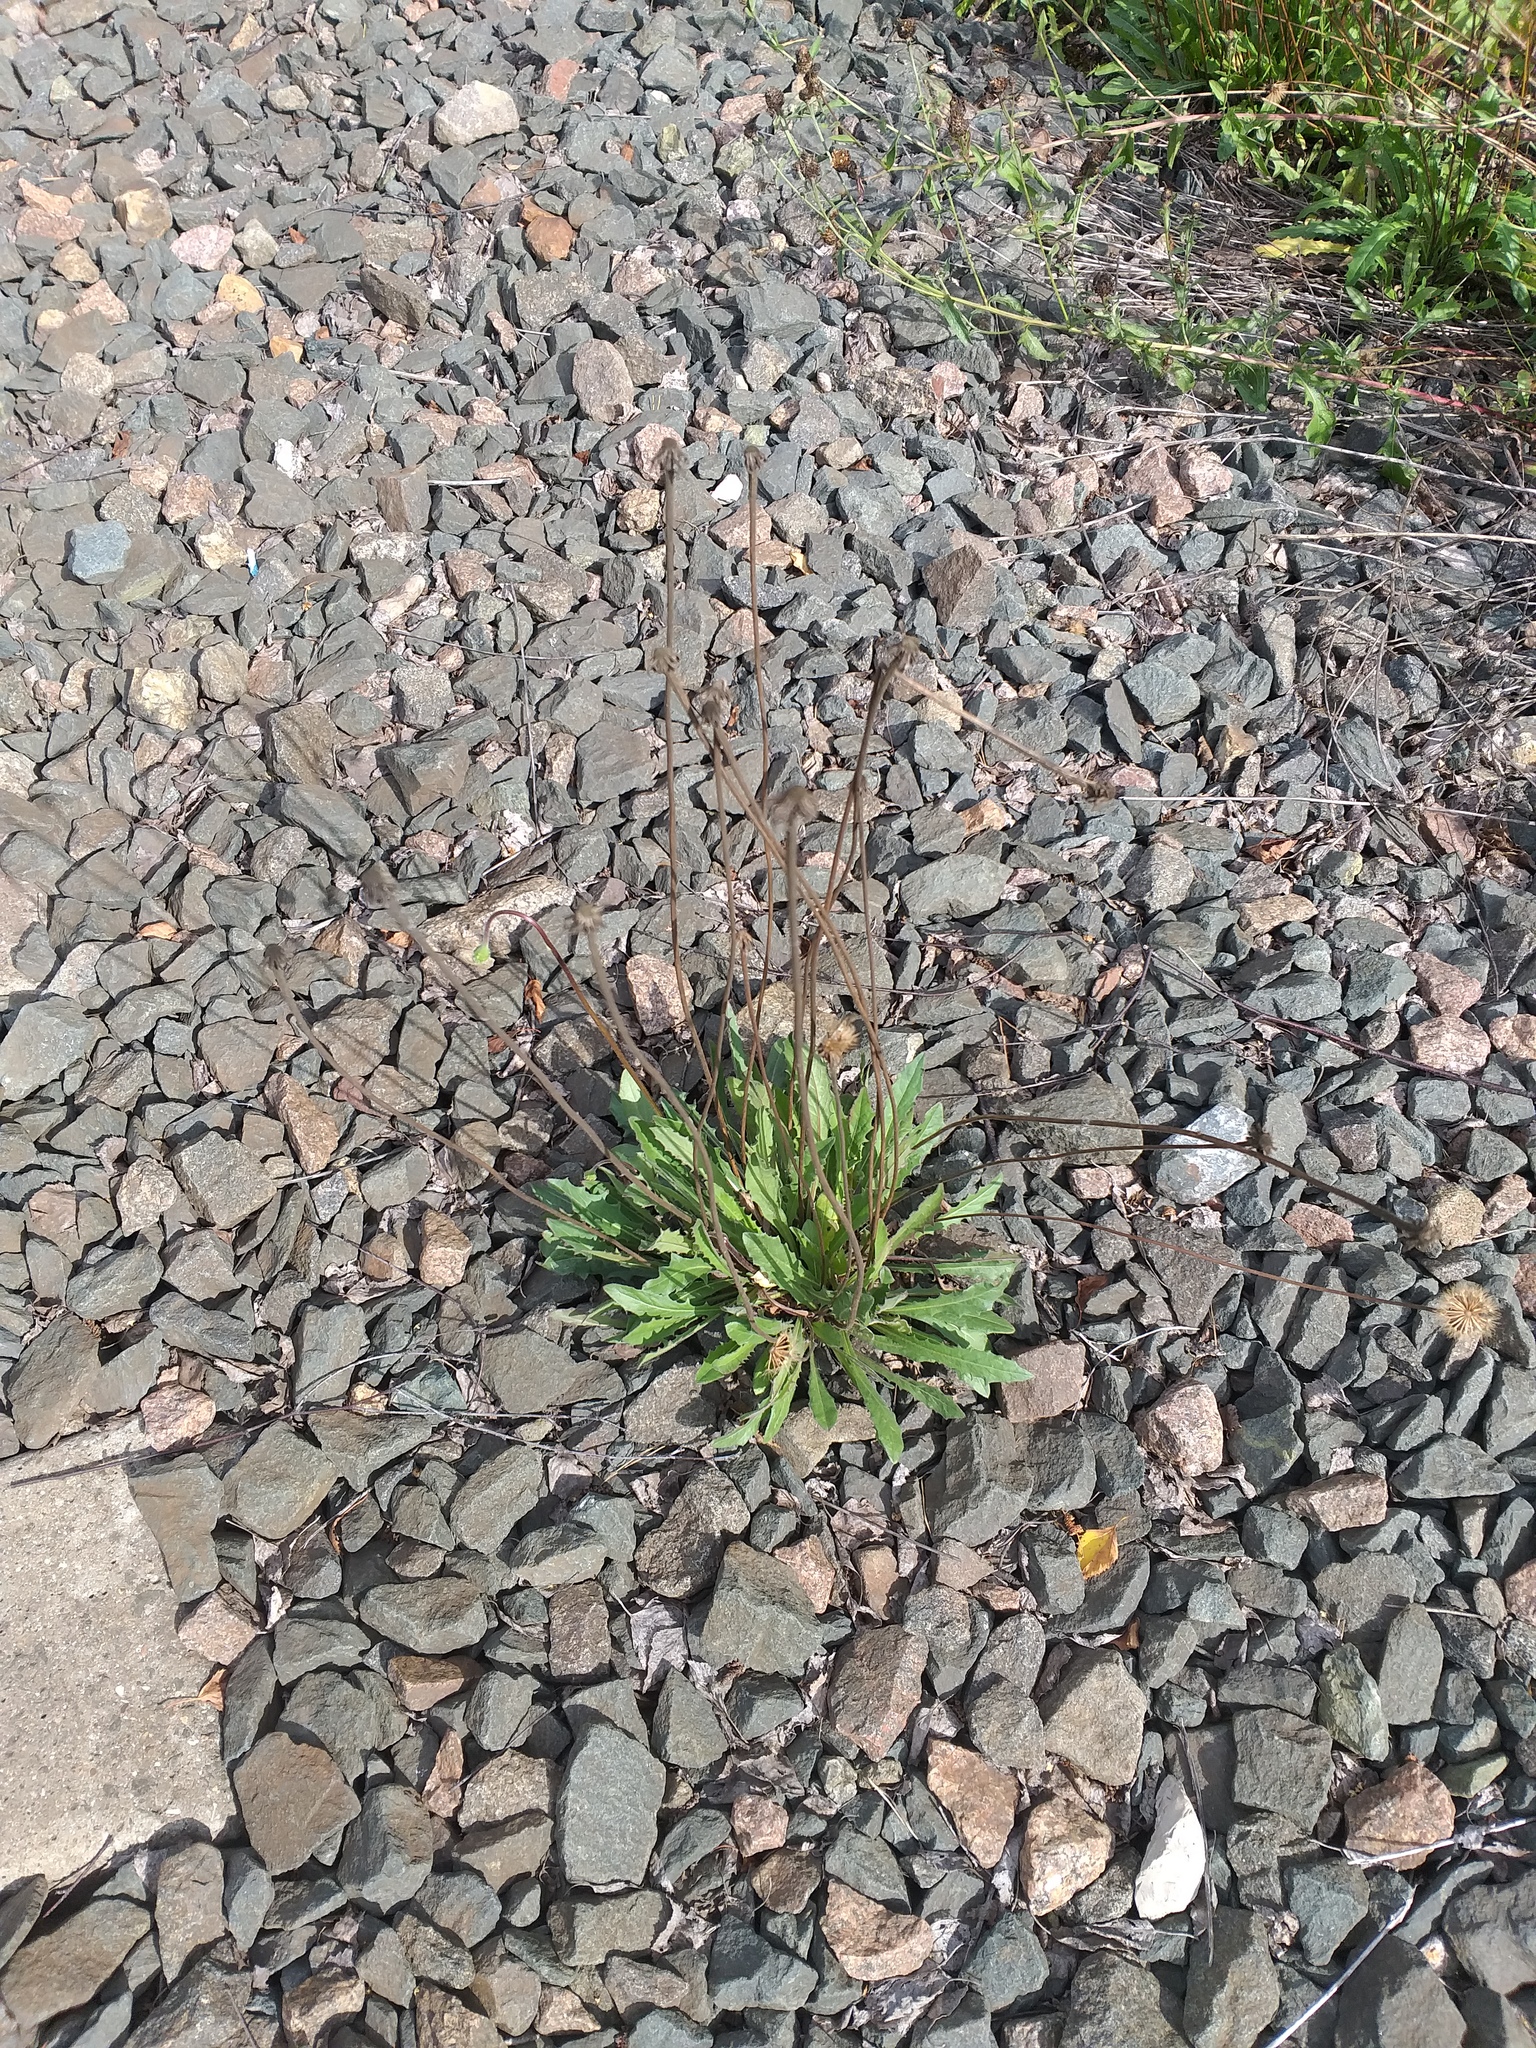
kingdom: Plantae
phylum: Tracheophyta
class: Magnoliopsida
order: Asterales
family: Asteraceae
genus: Leontodon
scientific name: Leontodon hispidus
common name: Rough hawkbit
